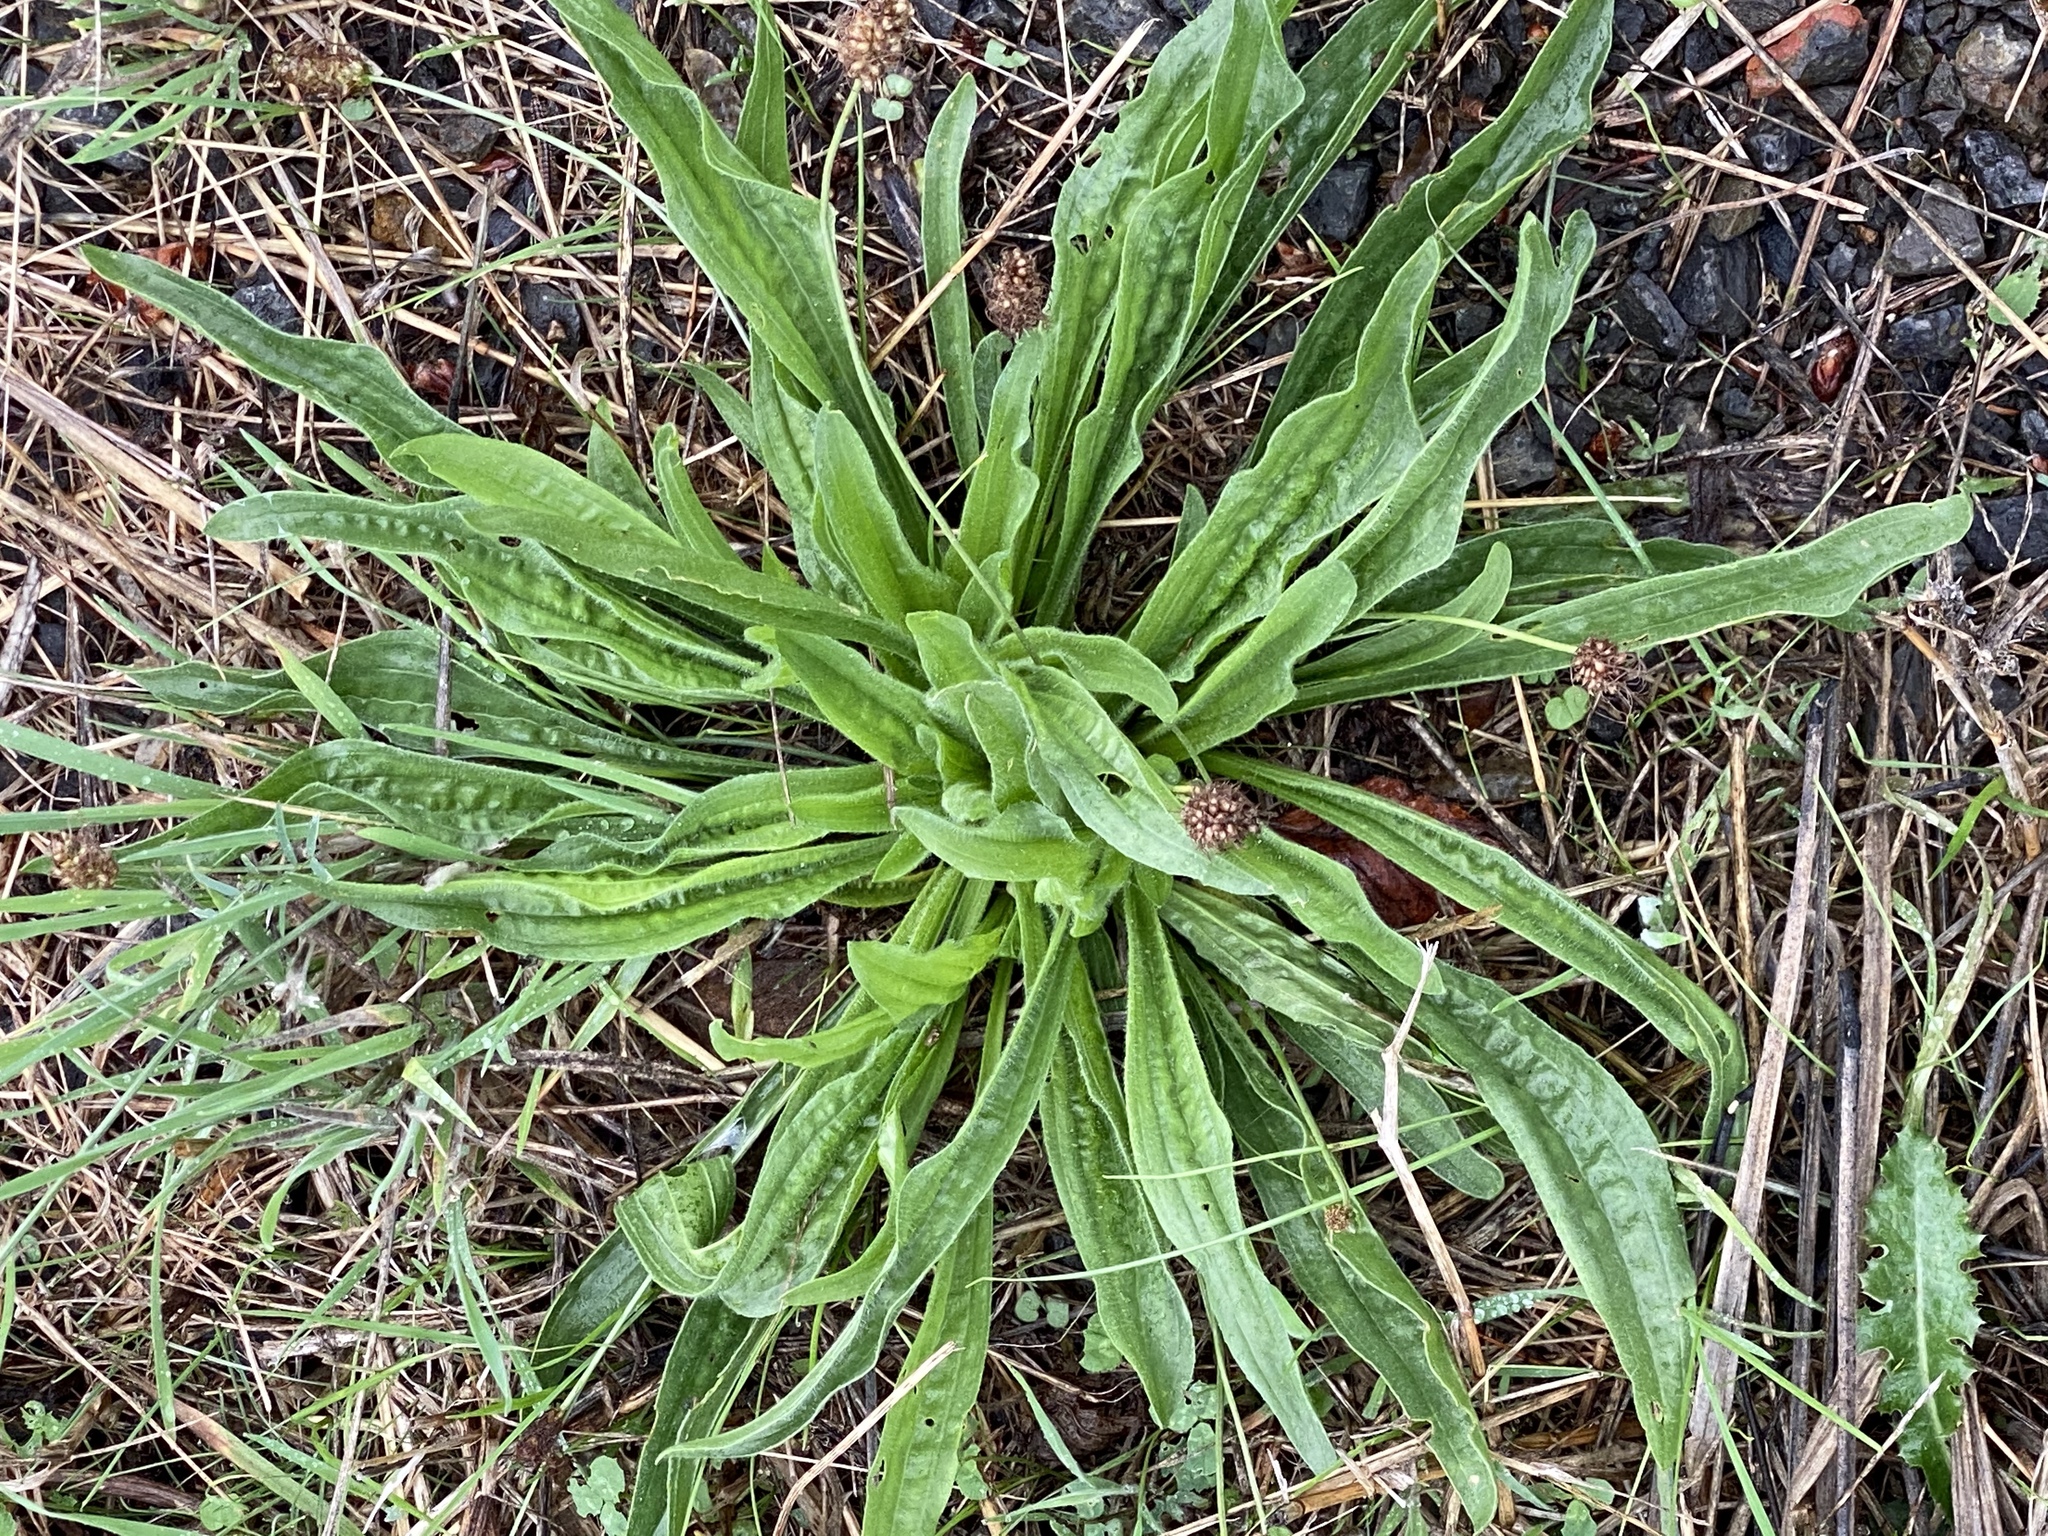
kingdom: Plantae
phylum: Tracheophyta
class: Magnoliopsida
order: Lamiales
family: Plantaginaceae
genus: Plantago
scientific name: Plantago lanceolata
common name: Ribwort plantain
